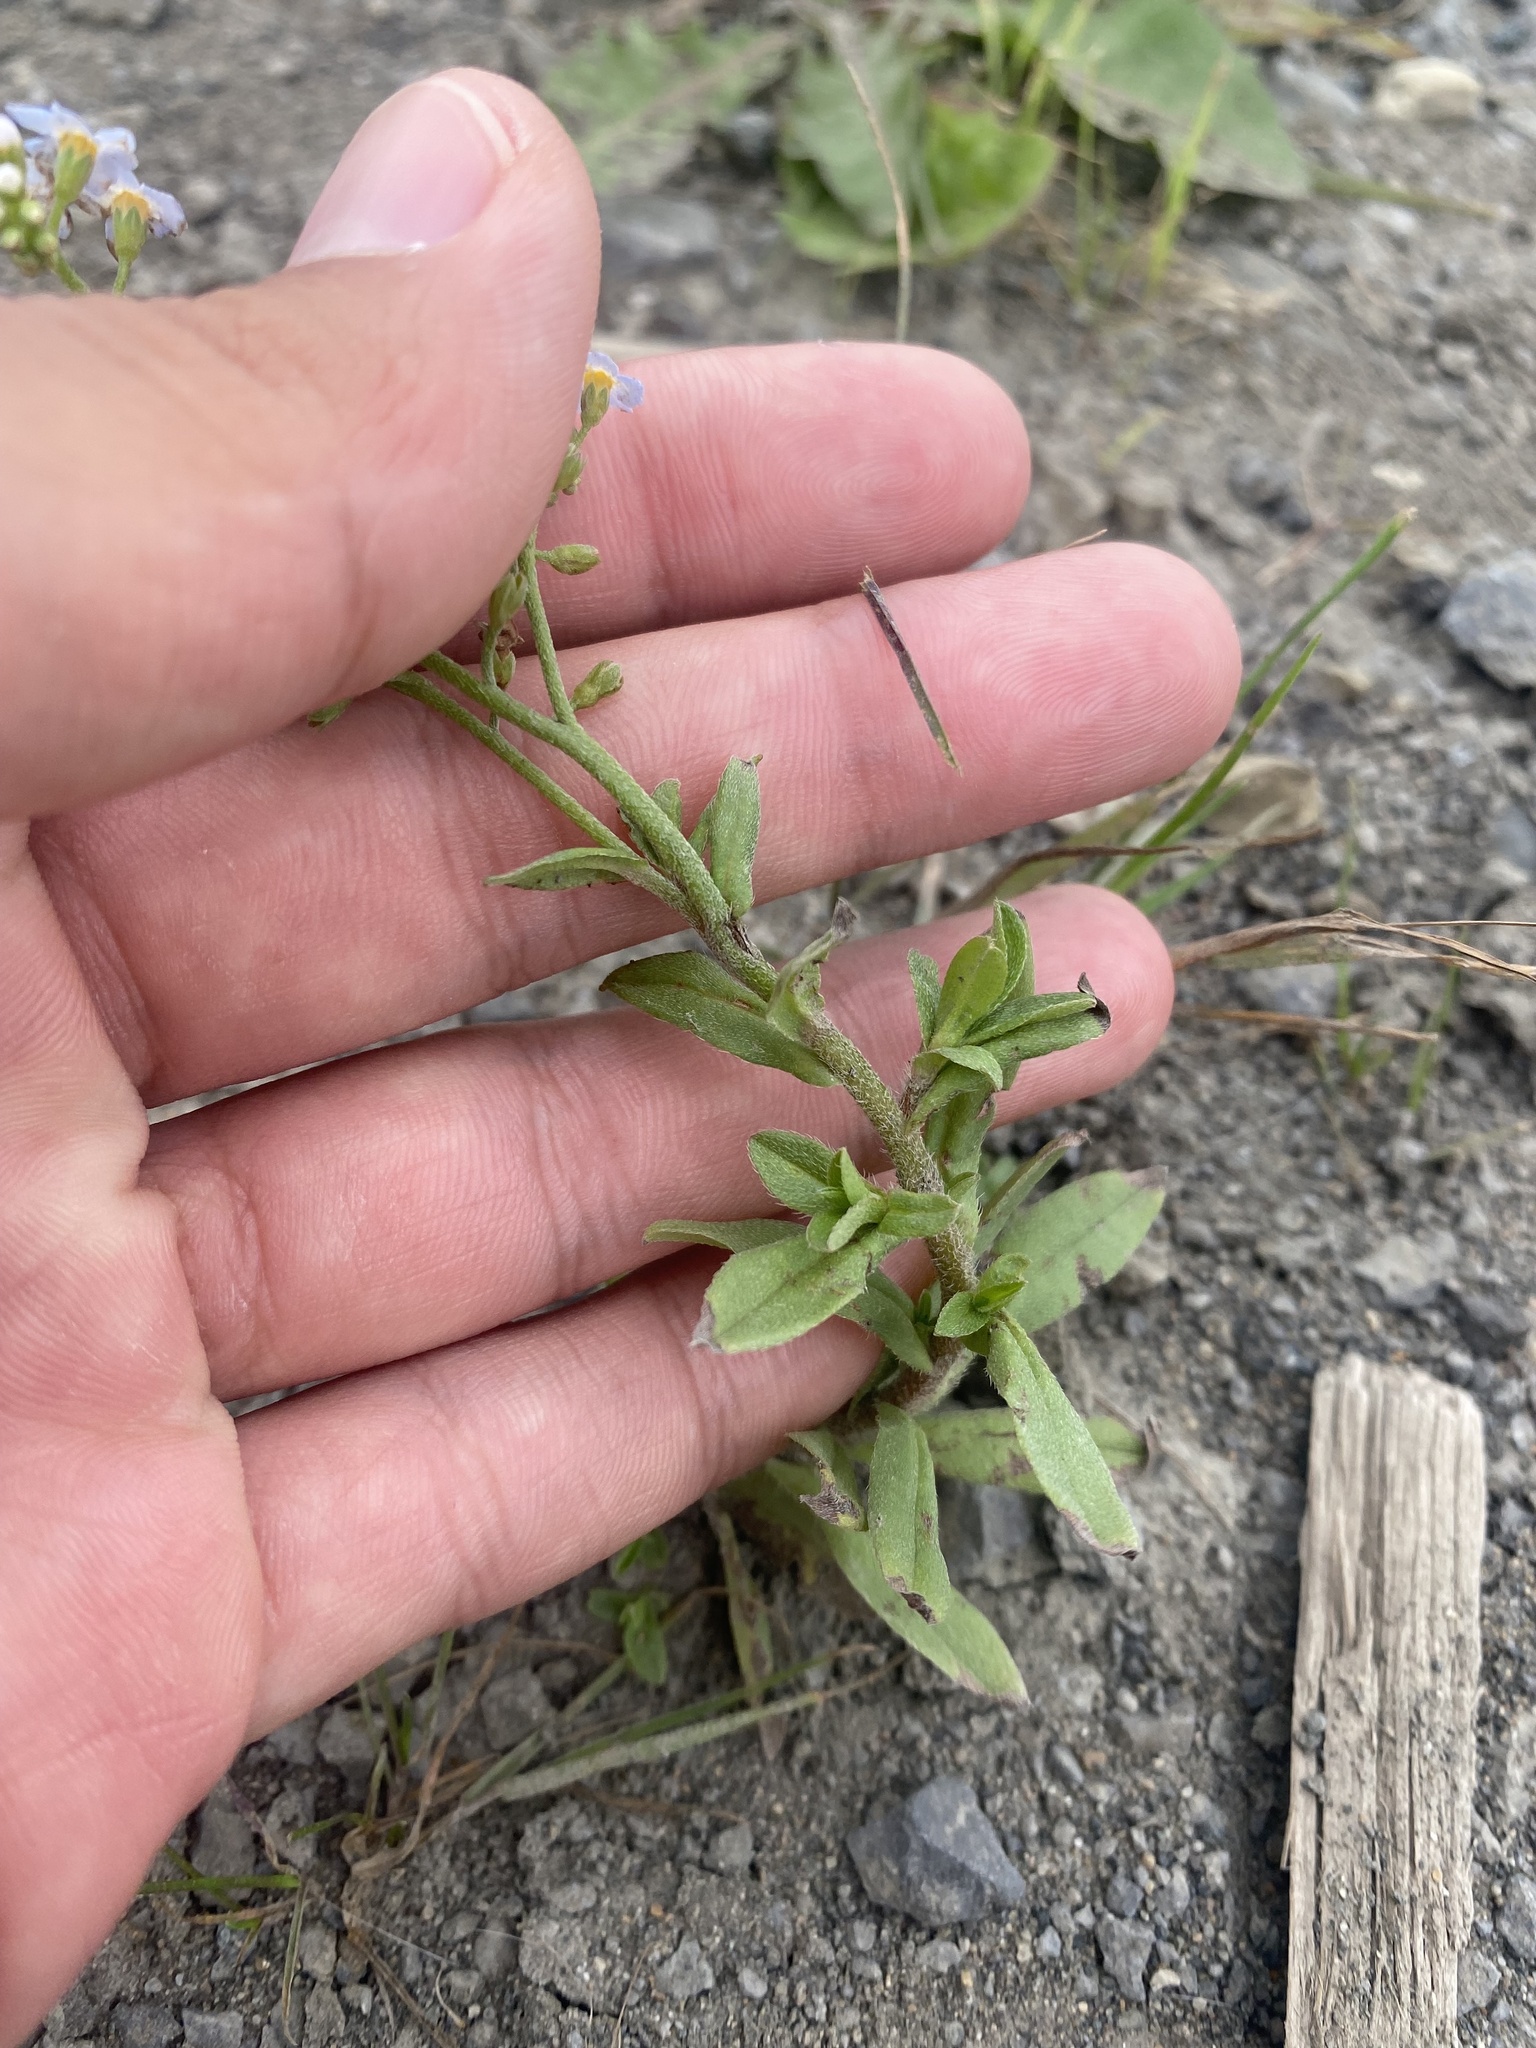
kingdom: Plantae
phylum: Tracheophyta
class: Magnoliopsida
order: Boraginales
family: Boraginaceae
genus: Myosotis
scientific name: Myosotis scorpioides
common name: Water forget-me-not
